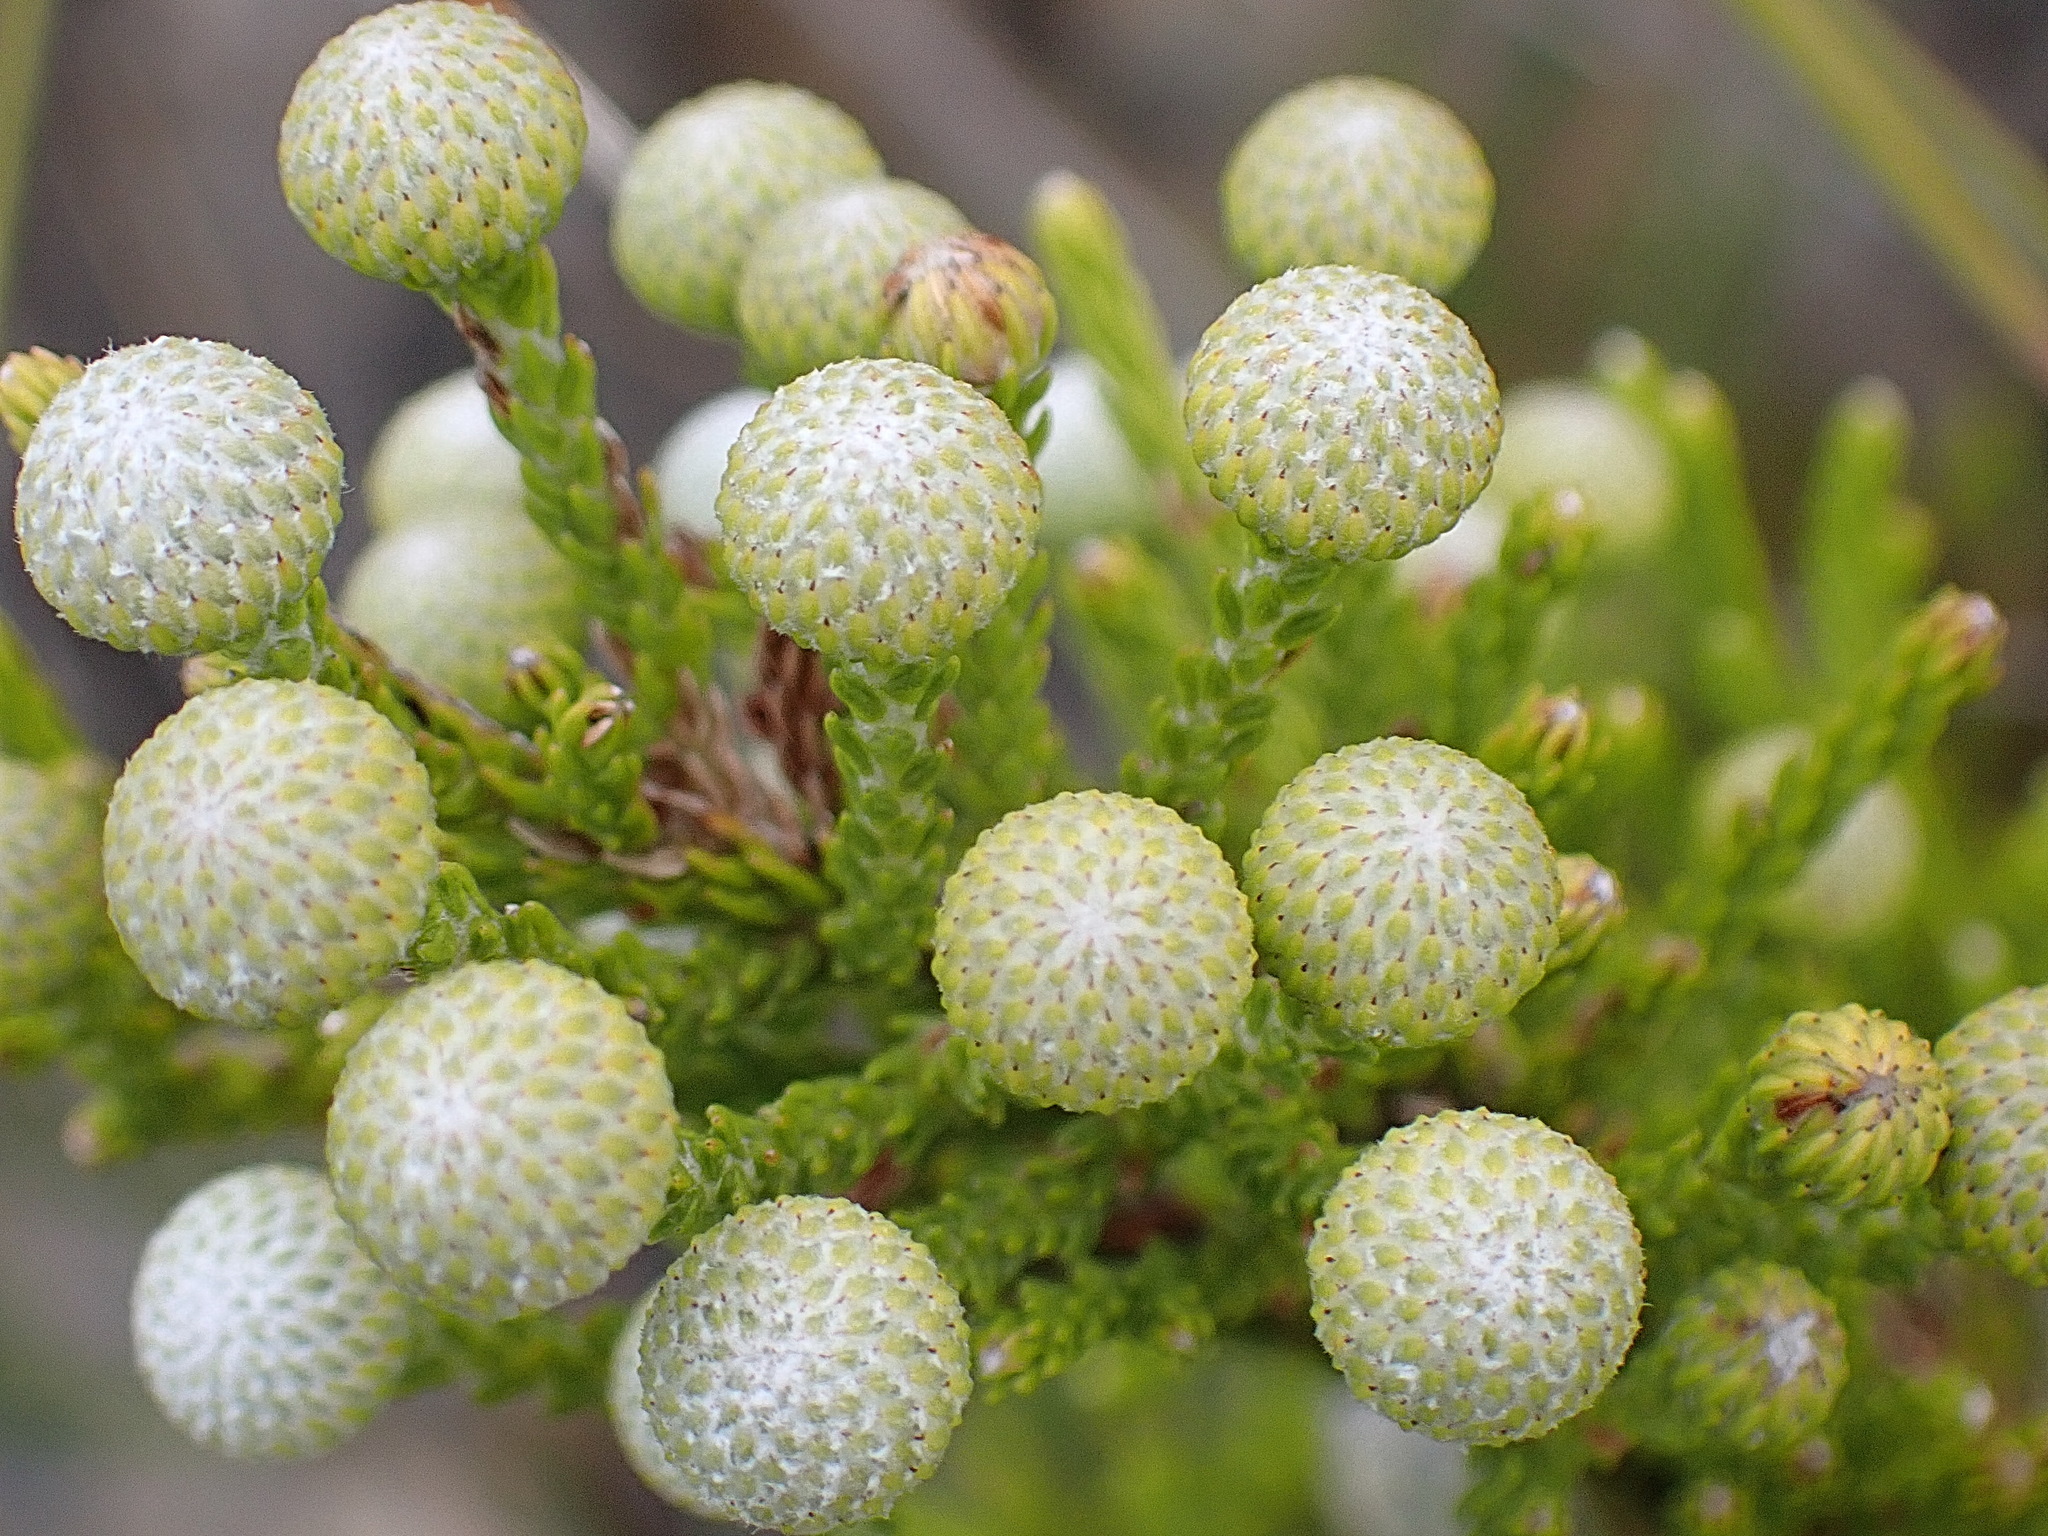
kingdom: Plantae
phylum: Tracheophyta
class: Magnoliopsida
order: Bruniales
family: Bruniaceae
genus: Brunia
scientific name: Brunia noduliflora
